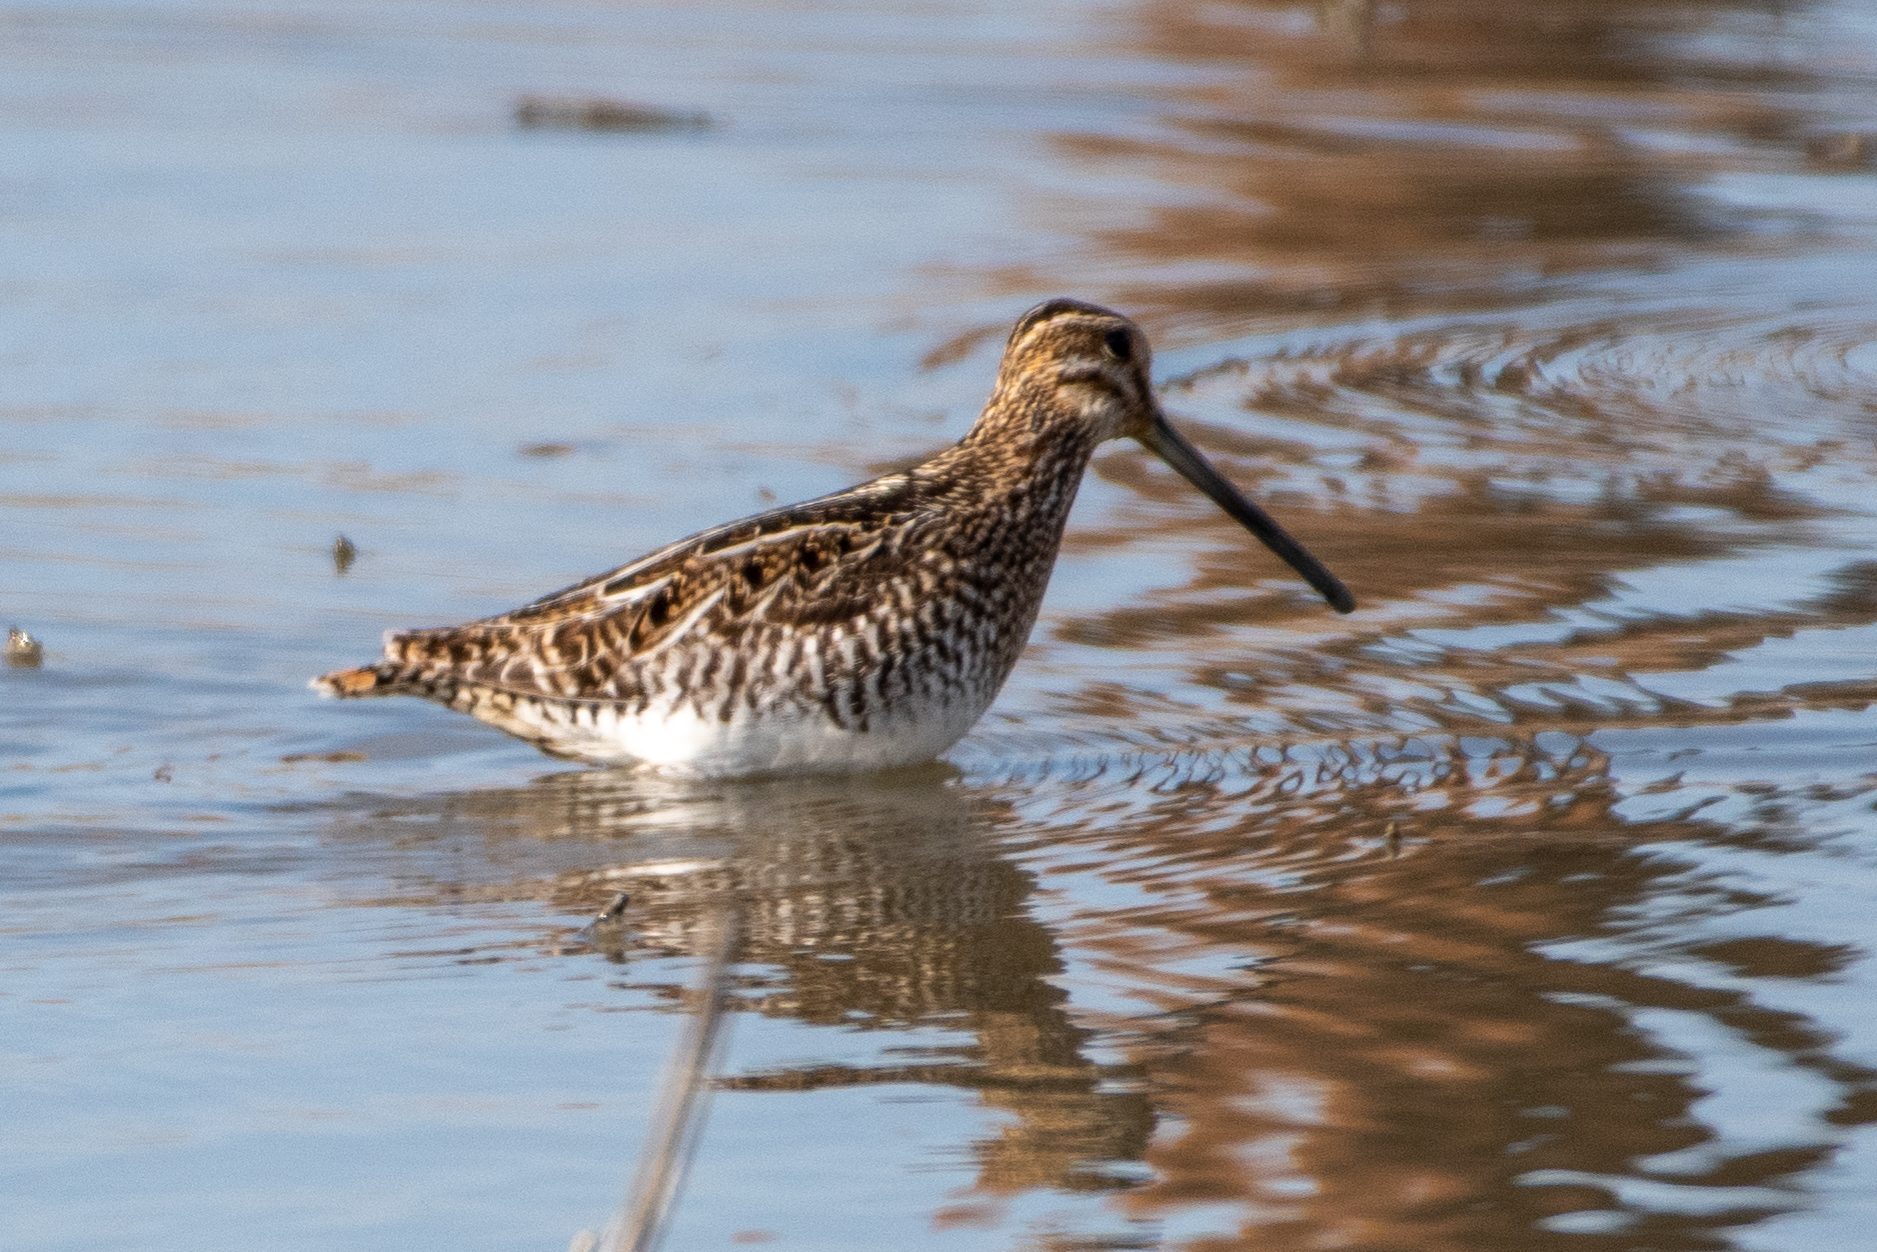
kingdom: Animalia
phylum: Chordata
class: Aves
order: Charadriiformes
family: Scolopacidae
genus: Gallinago
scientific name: Gallinago delicata
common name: Wilson's snipe
